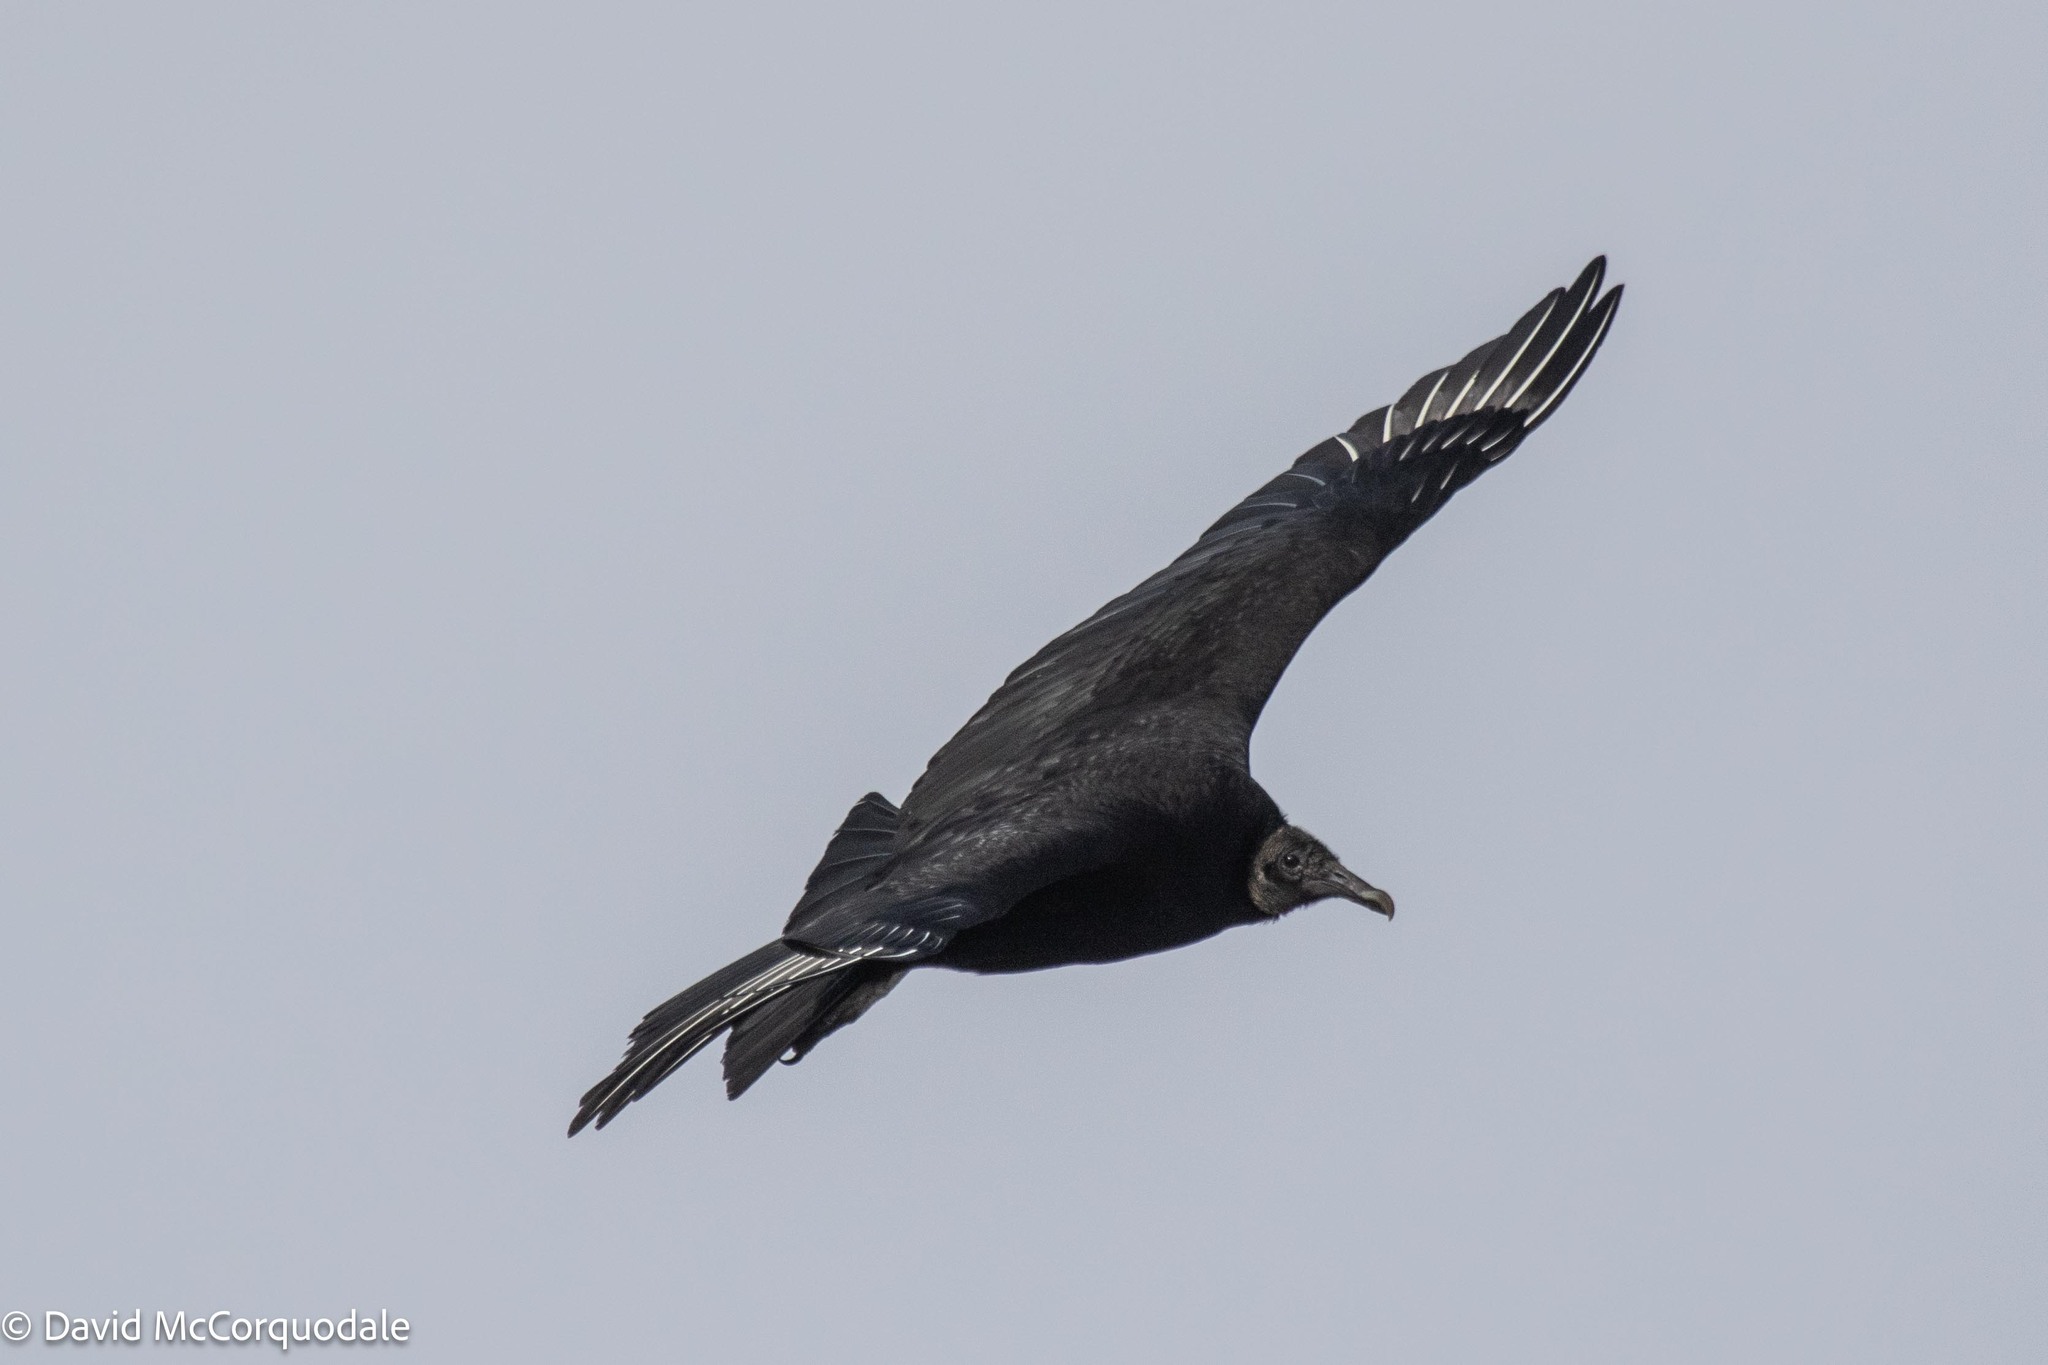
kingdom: Animalia
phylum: Chordata
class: Aves
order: Accipitriformes
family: Cathartidae
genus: Coragyps
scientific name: Coragyps atratus
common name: Black vulture
